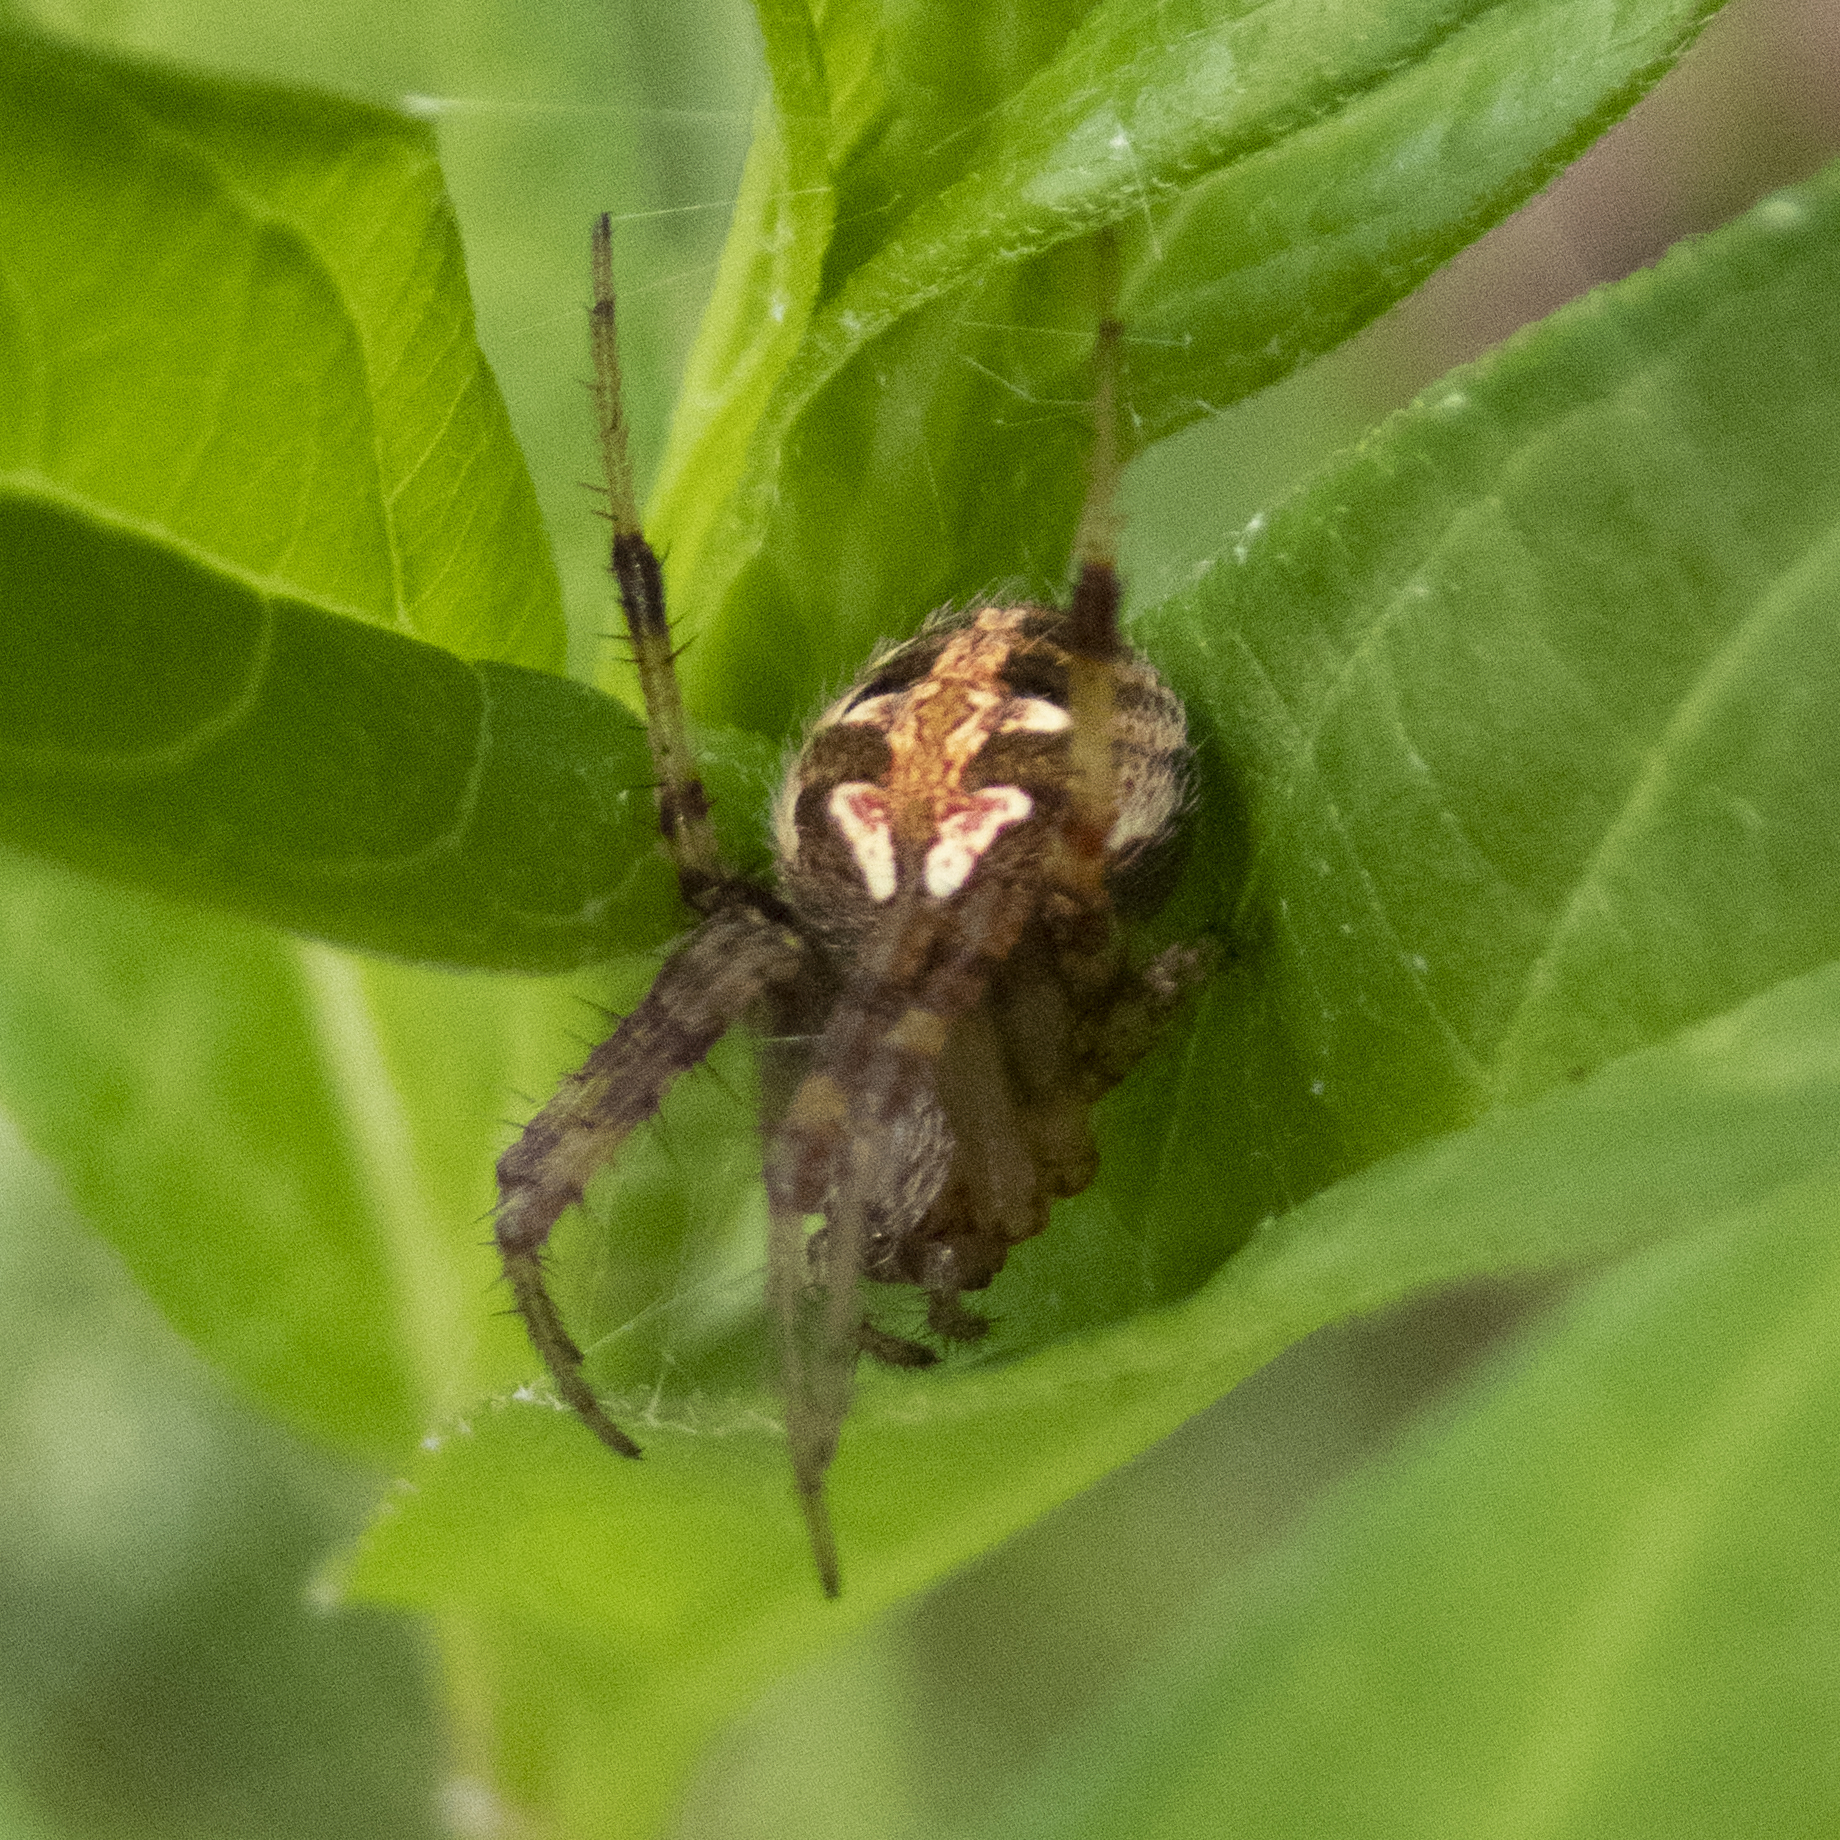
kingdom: Animalia
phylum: Arthropoda
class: Arachnida
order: Araneae
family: Araneidae
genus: Neoscona
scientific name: Neoscona arabesca
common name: Orb weavers
